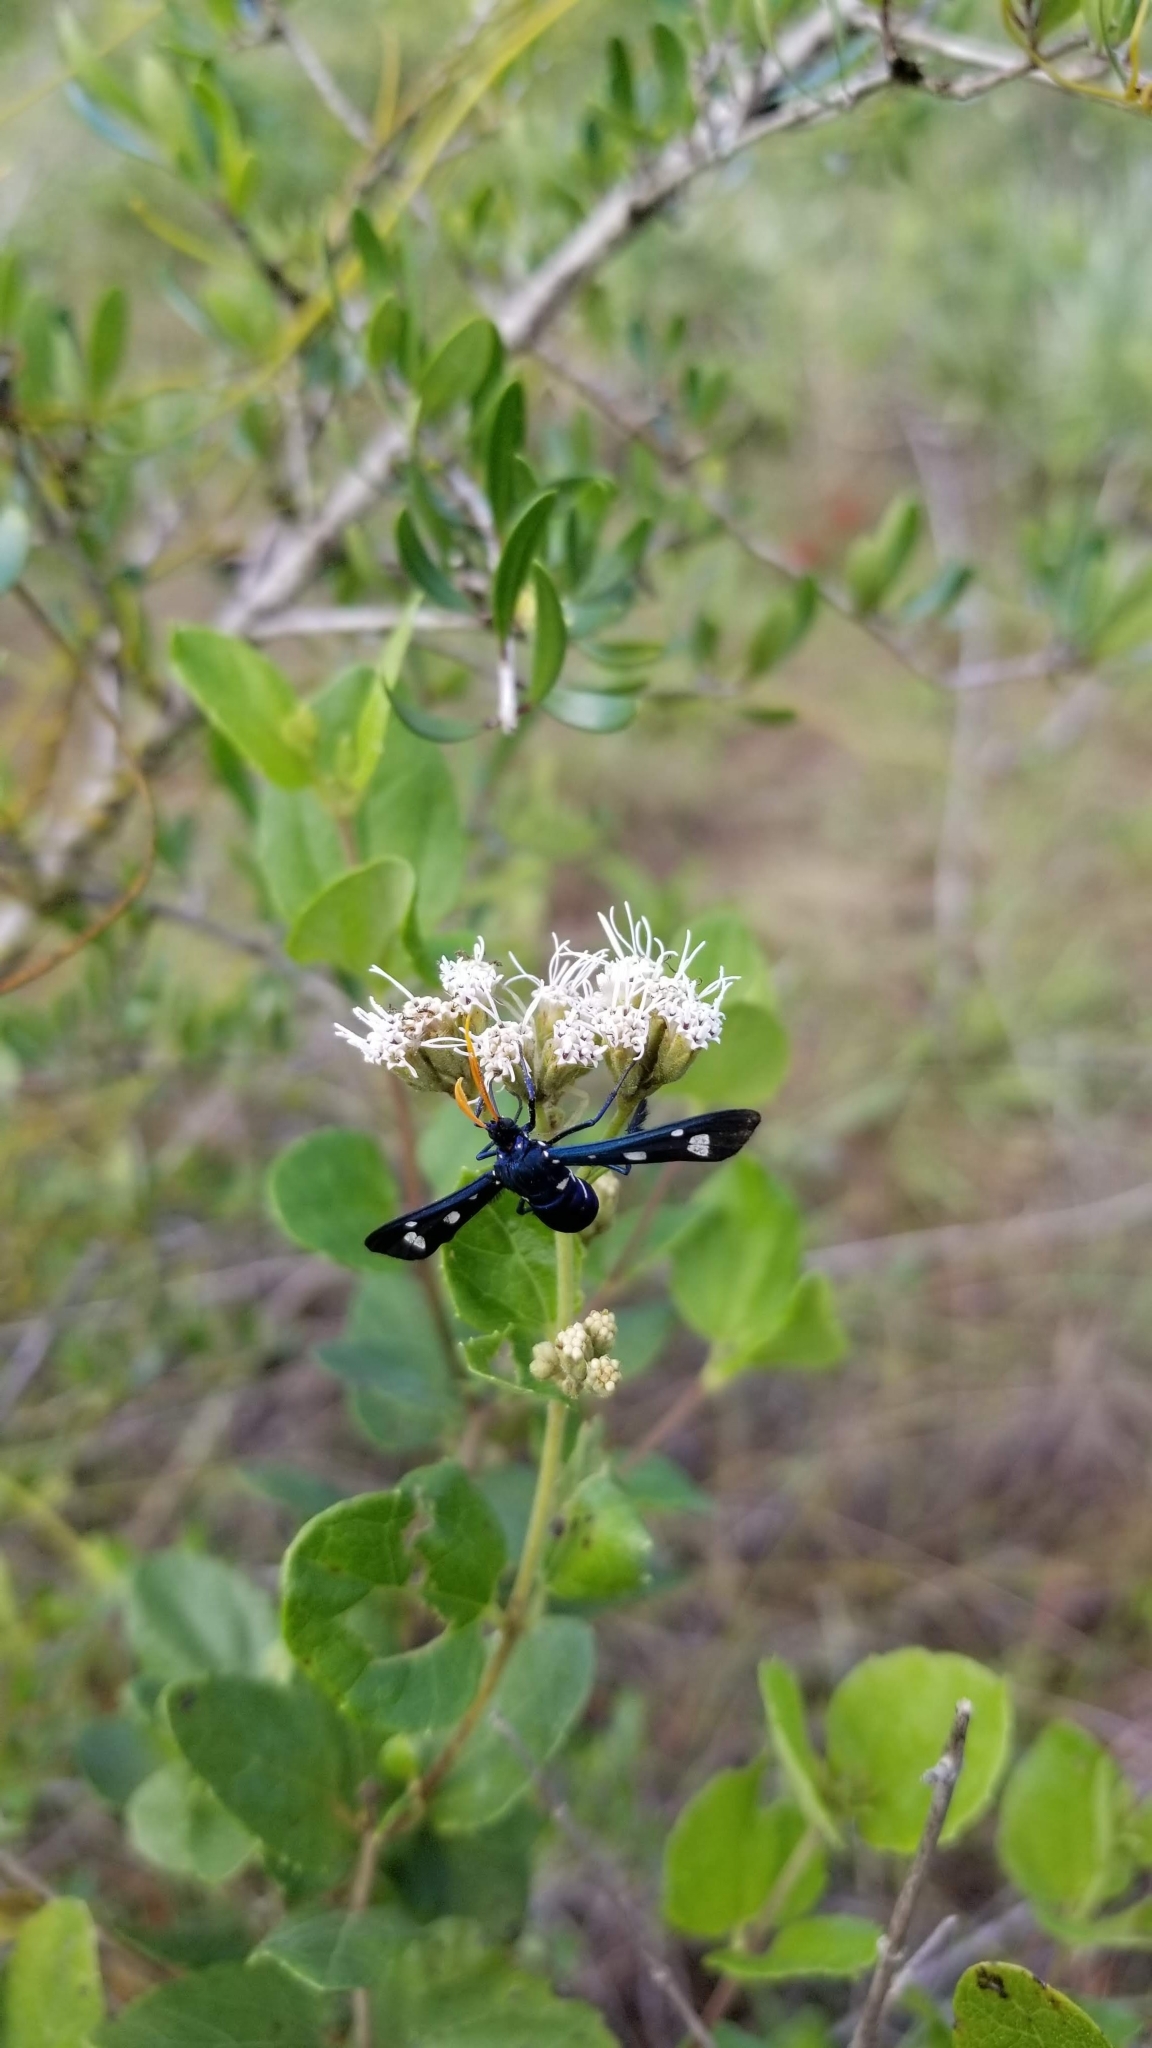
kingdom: Animalia
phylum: Arthropoda
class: Insecta
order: Lepidoptera
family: Erebidae
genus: Pseudohyaleucerea
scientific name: Pseudohyaleucerea minima
